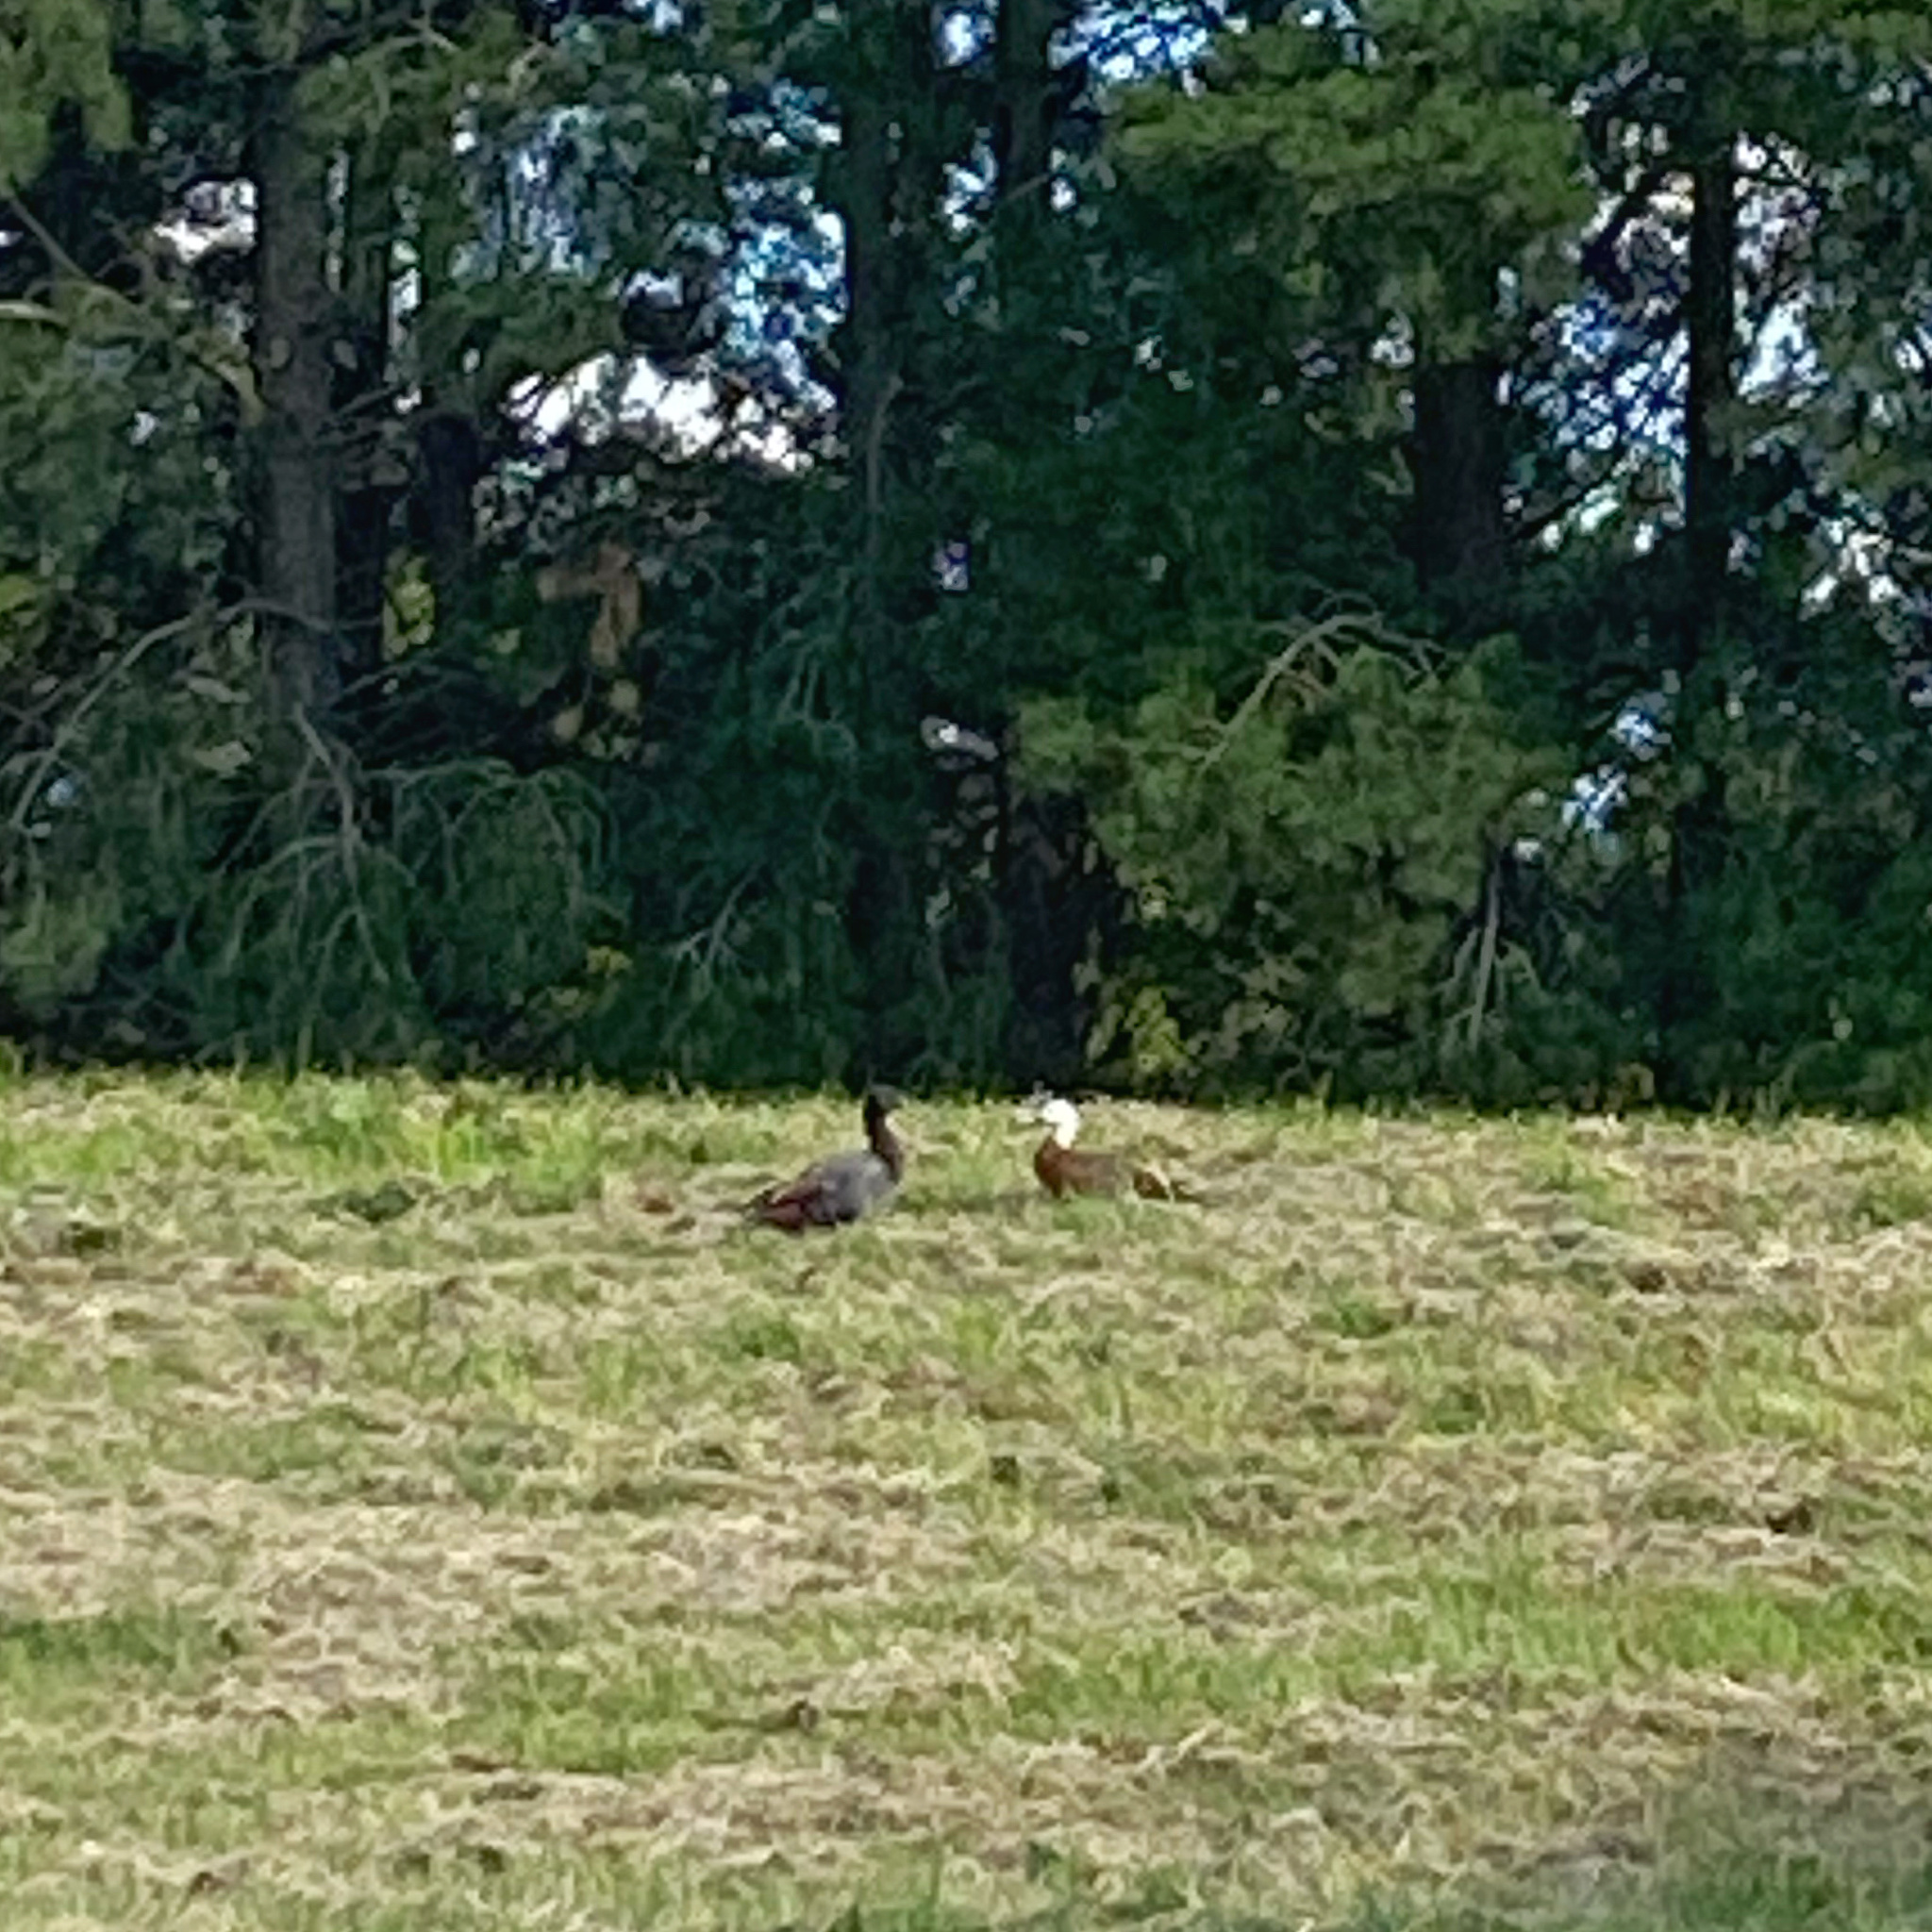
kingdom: Animalia
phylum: Chordata
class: Aves
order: Anseriformes
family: Anatidae
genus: Tadorna
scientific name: Tadorna variegata
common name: Paradise shelduck
